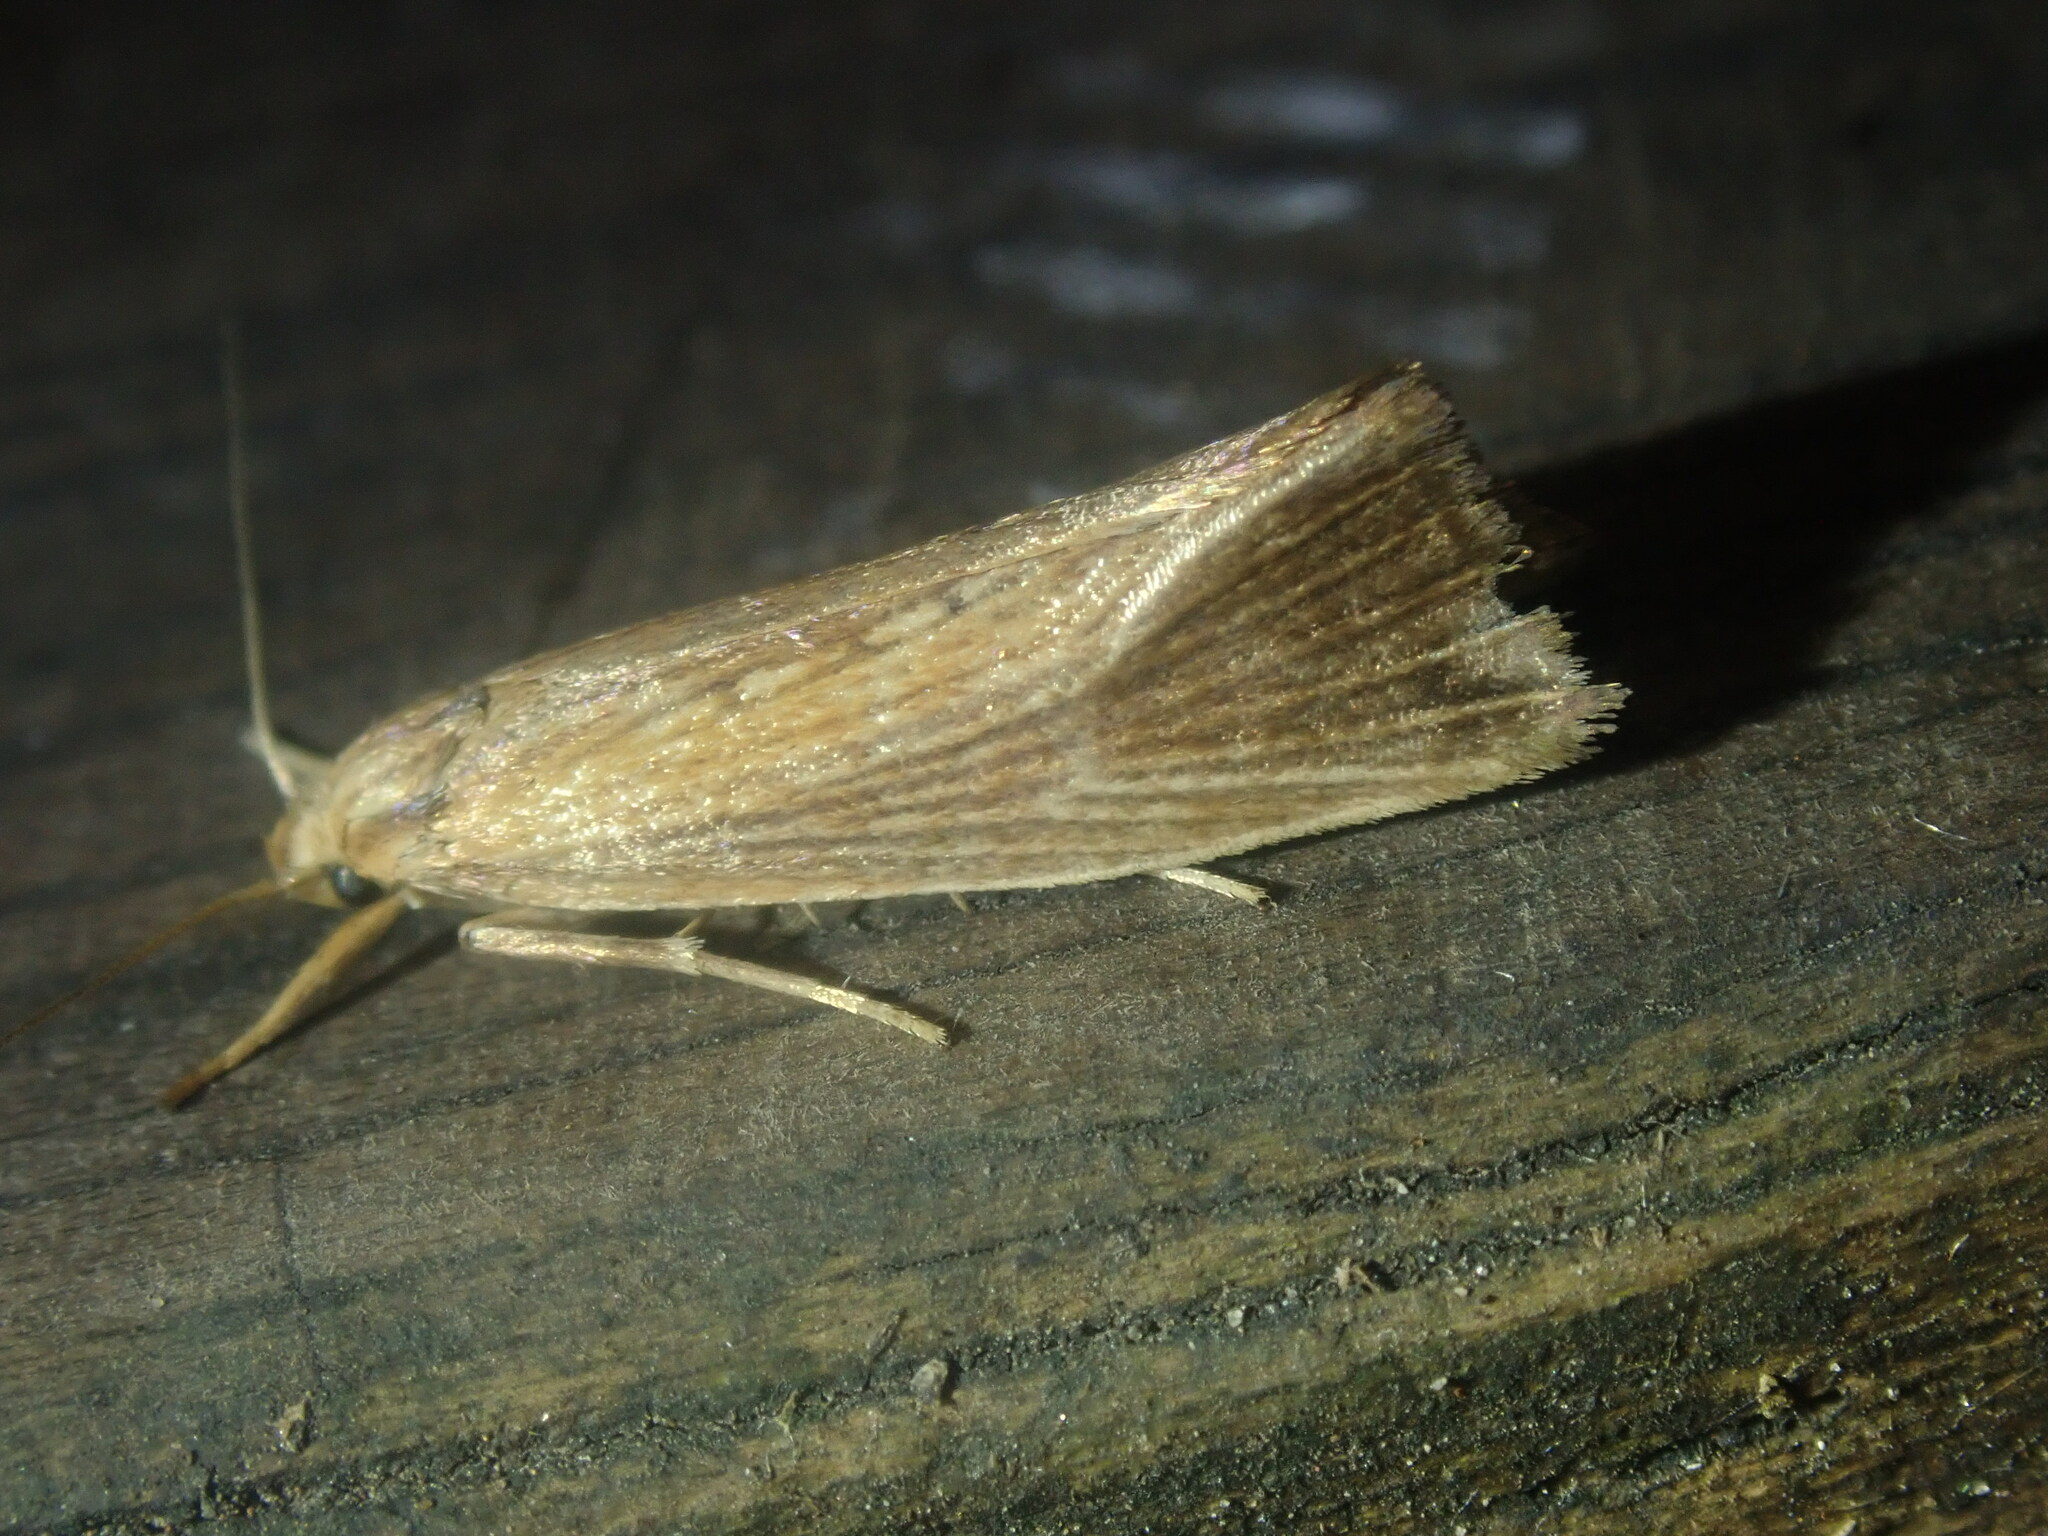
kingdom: Animalia
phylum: Arthropoda
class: Insecta
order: Lepidoptera
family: Glyphipterigidae
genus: Orthotelia
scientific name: Orthotelia sparganella
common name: Reed fanner
